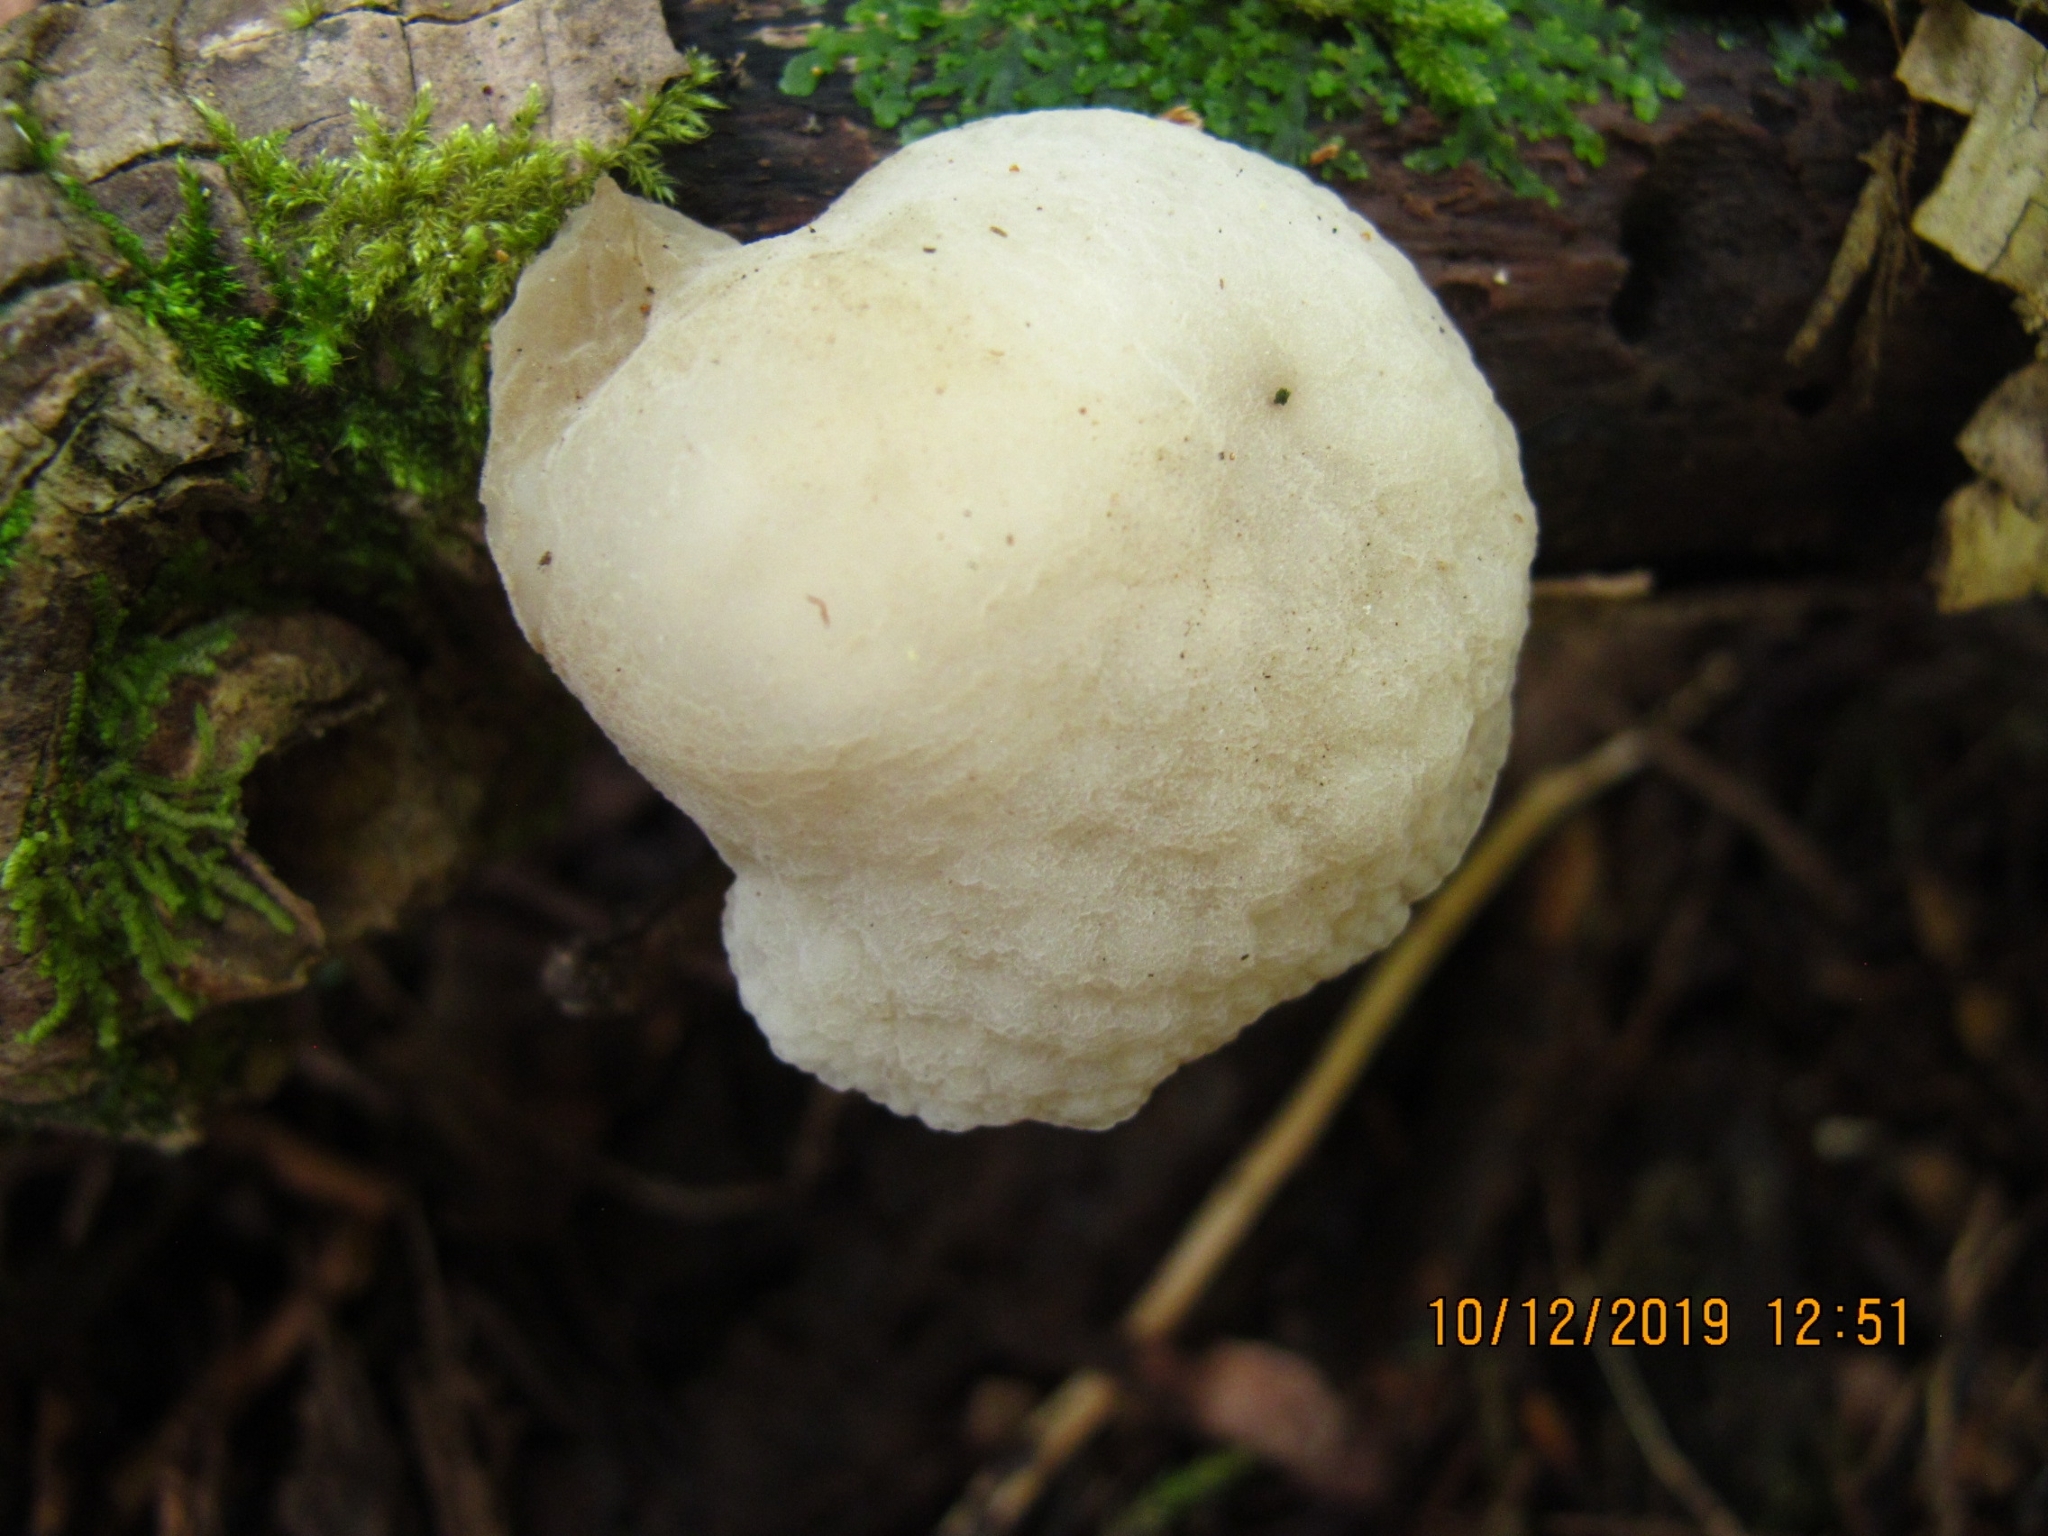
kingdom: Fungi
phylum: Basidiomycota
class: Agaricomycetes
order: Agaricales
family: Mycenaceae
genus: Favolaschia
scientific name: Favolaschia pustulosa
